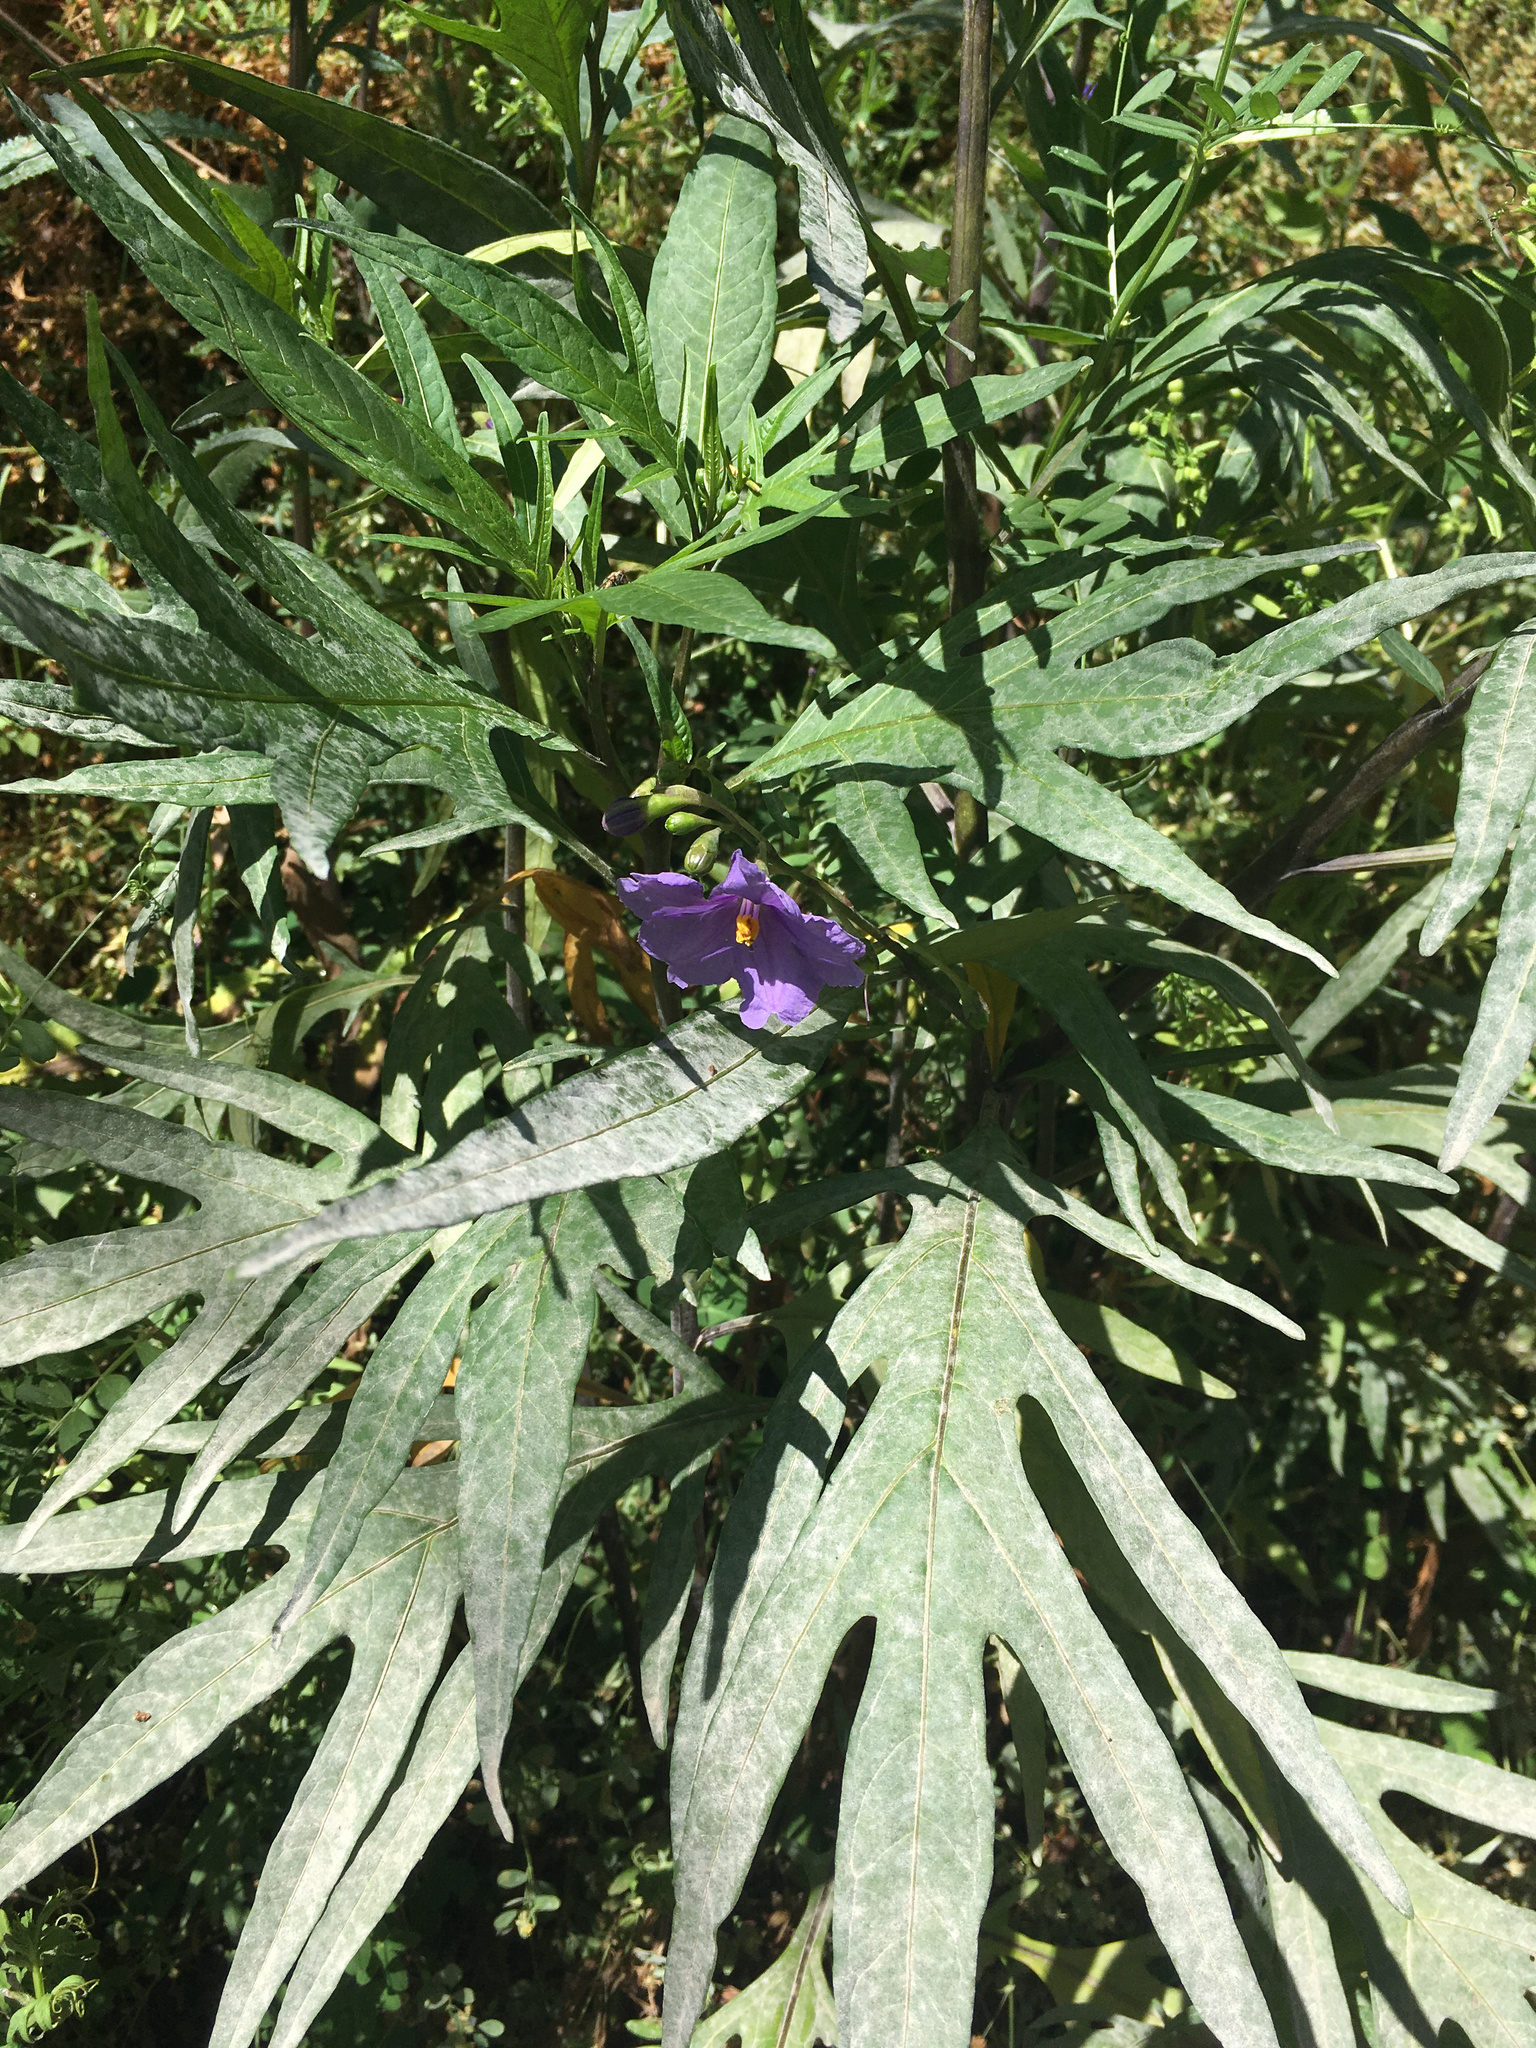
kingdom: Plantae
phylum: Tracheophyta
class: Magnoliopsida
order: Solanales
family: Solanaceae
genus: Solanum
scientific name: Solanum laciniatum
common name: Kangaroo-apple
